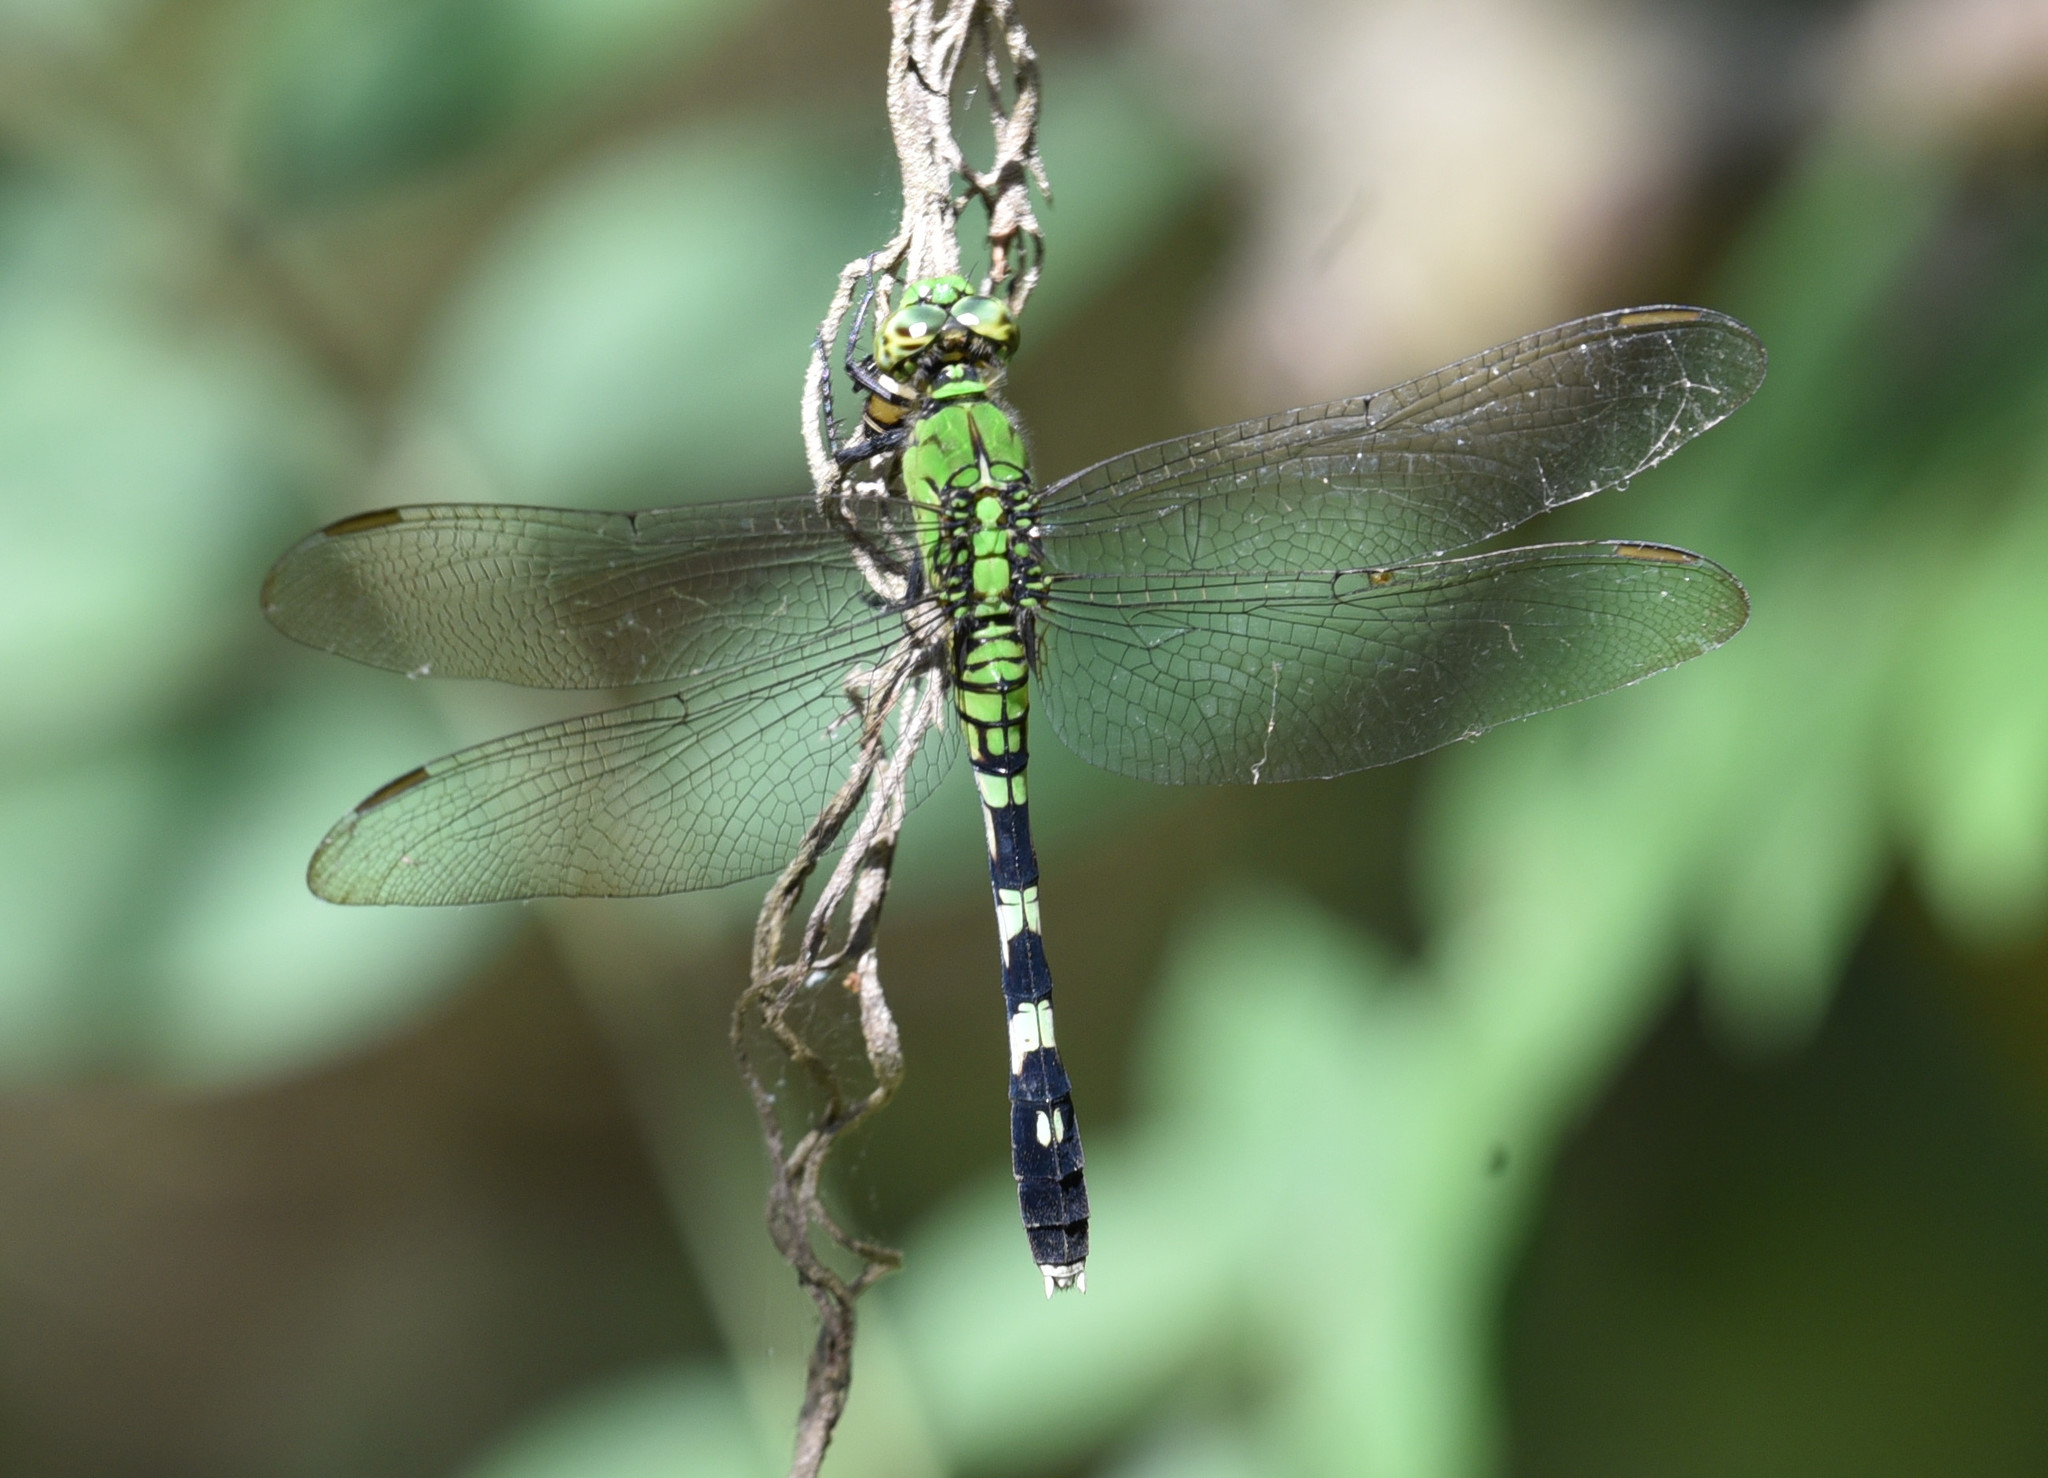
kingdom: Animalia
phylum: Arthropoda
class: Insecta
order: Odonata
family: Libellulidae
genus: Erythemis
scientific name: Erythemis simplicicollis
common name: Eastern pondhawk
